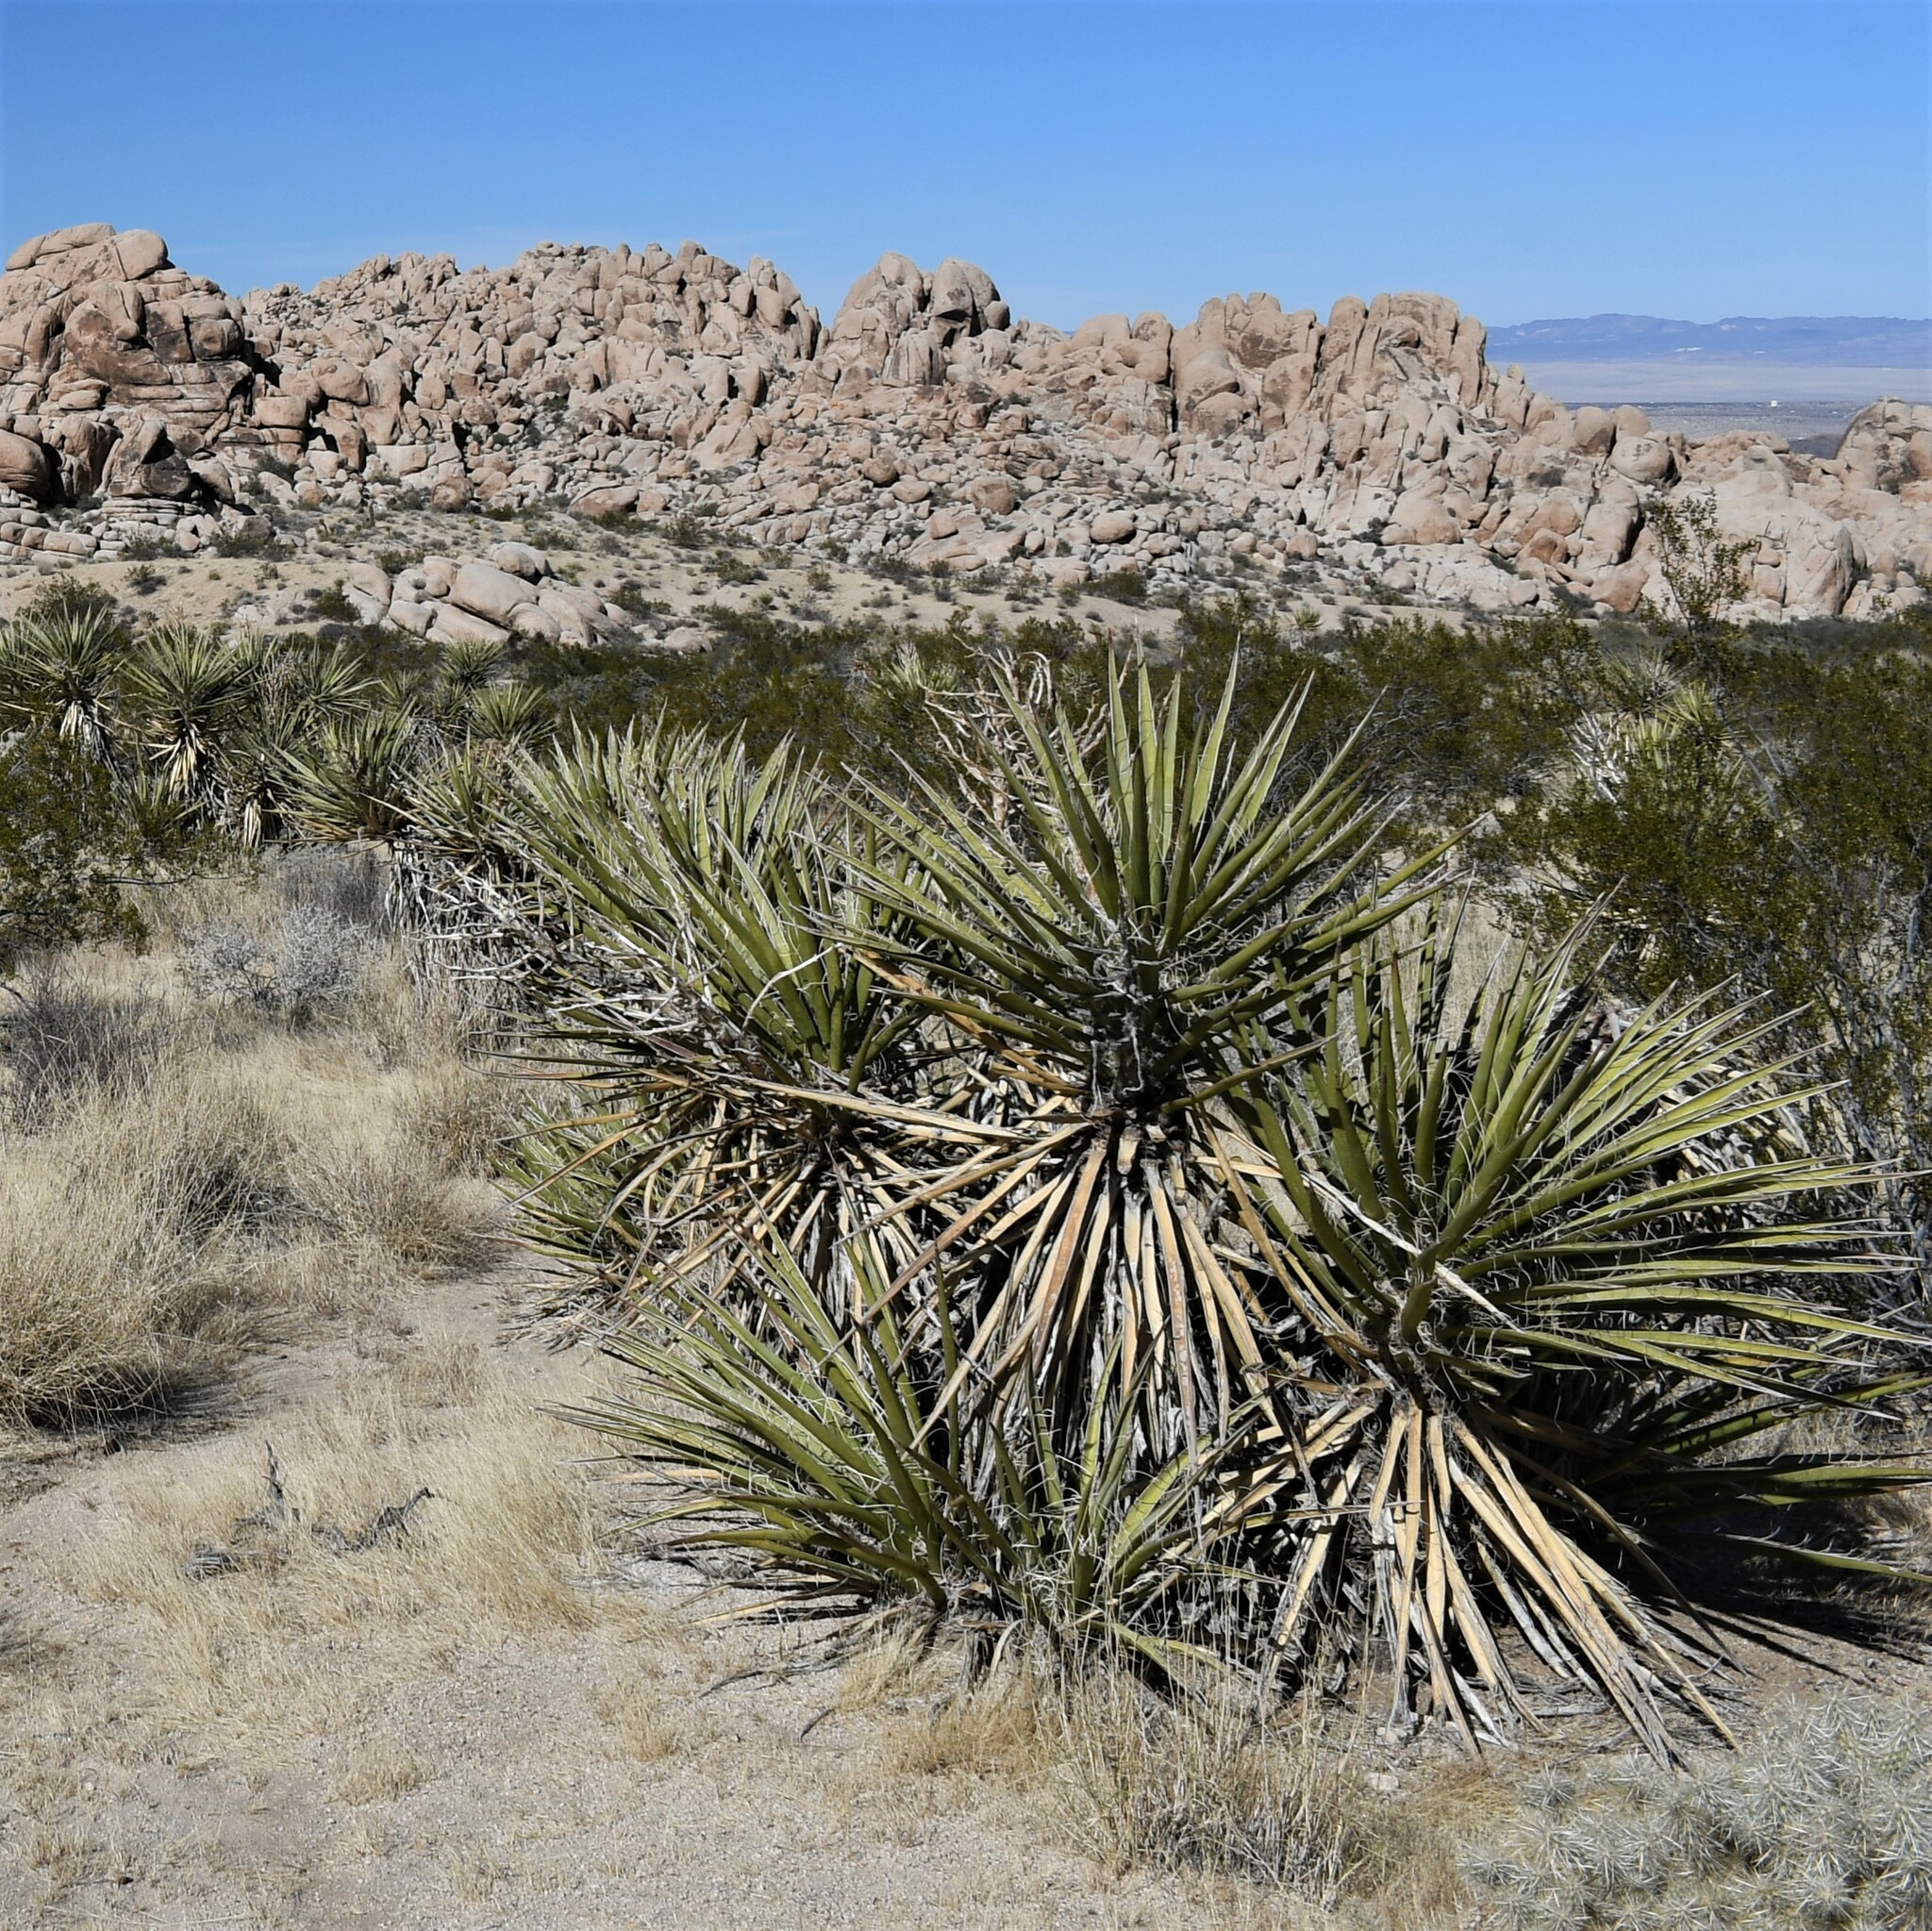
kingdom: Plantae
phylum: Tracheophyta
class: Liliopsida
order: Asparagales
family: Asparagaceae
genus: Yucca
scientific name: Yucca schidigera
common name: Mojave yucca
